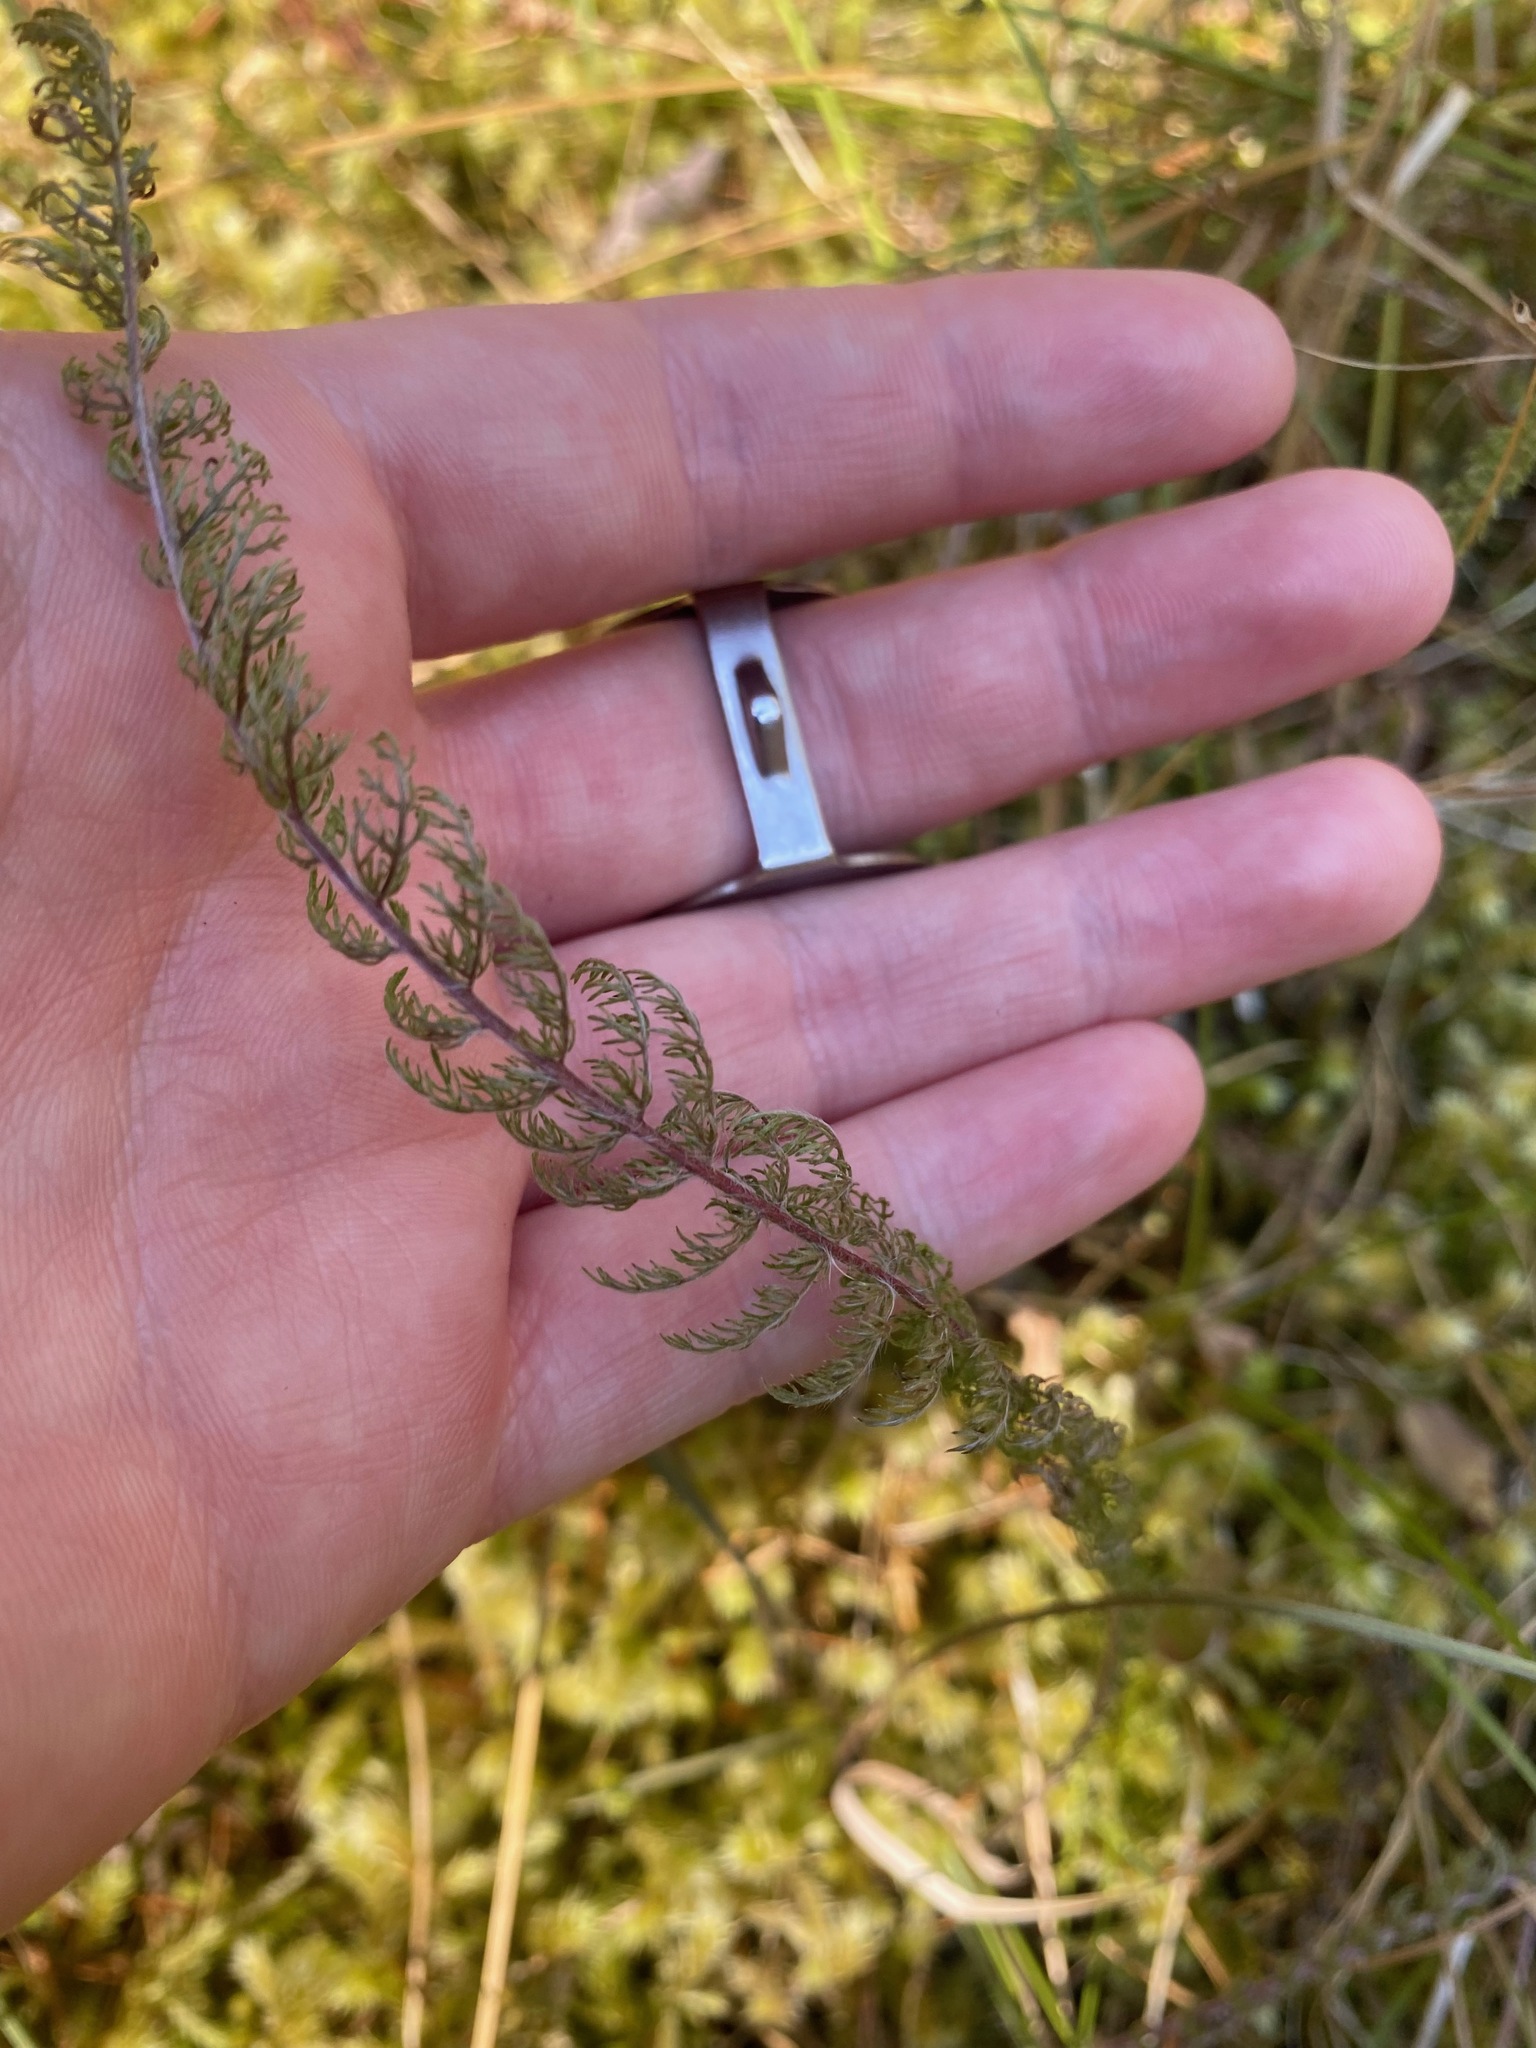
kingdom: Plantae
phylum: Tracheophyta
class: Magnoliopsida
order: Asterales
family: Asteraceae
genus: Achillea
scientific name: Achillea millefolium
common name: Yarrow
